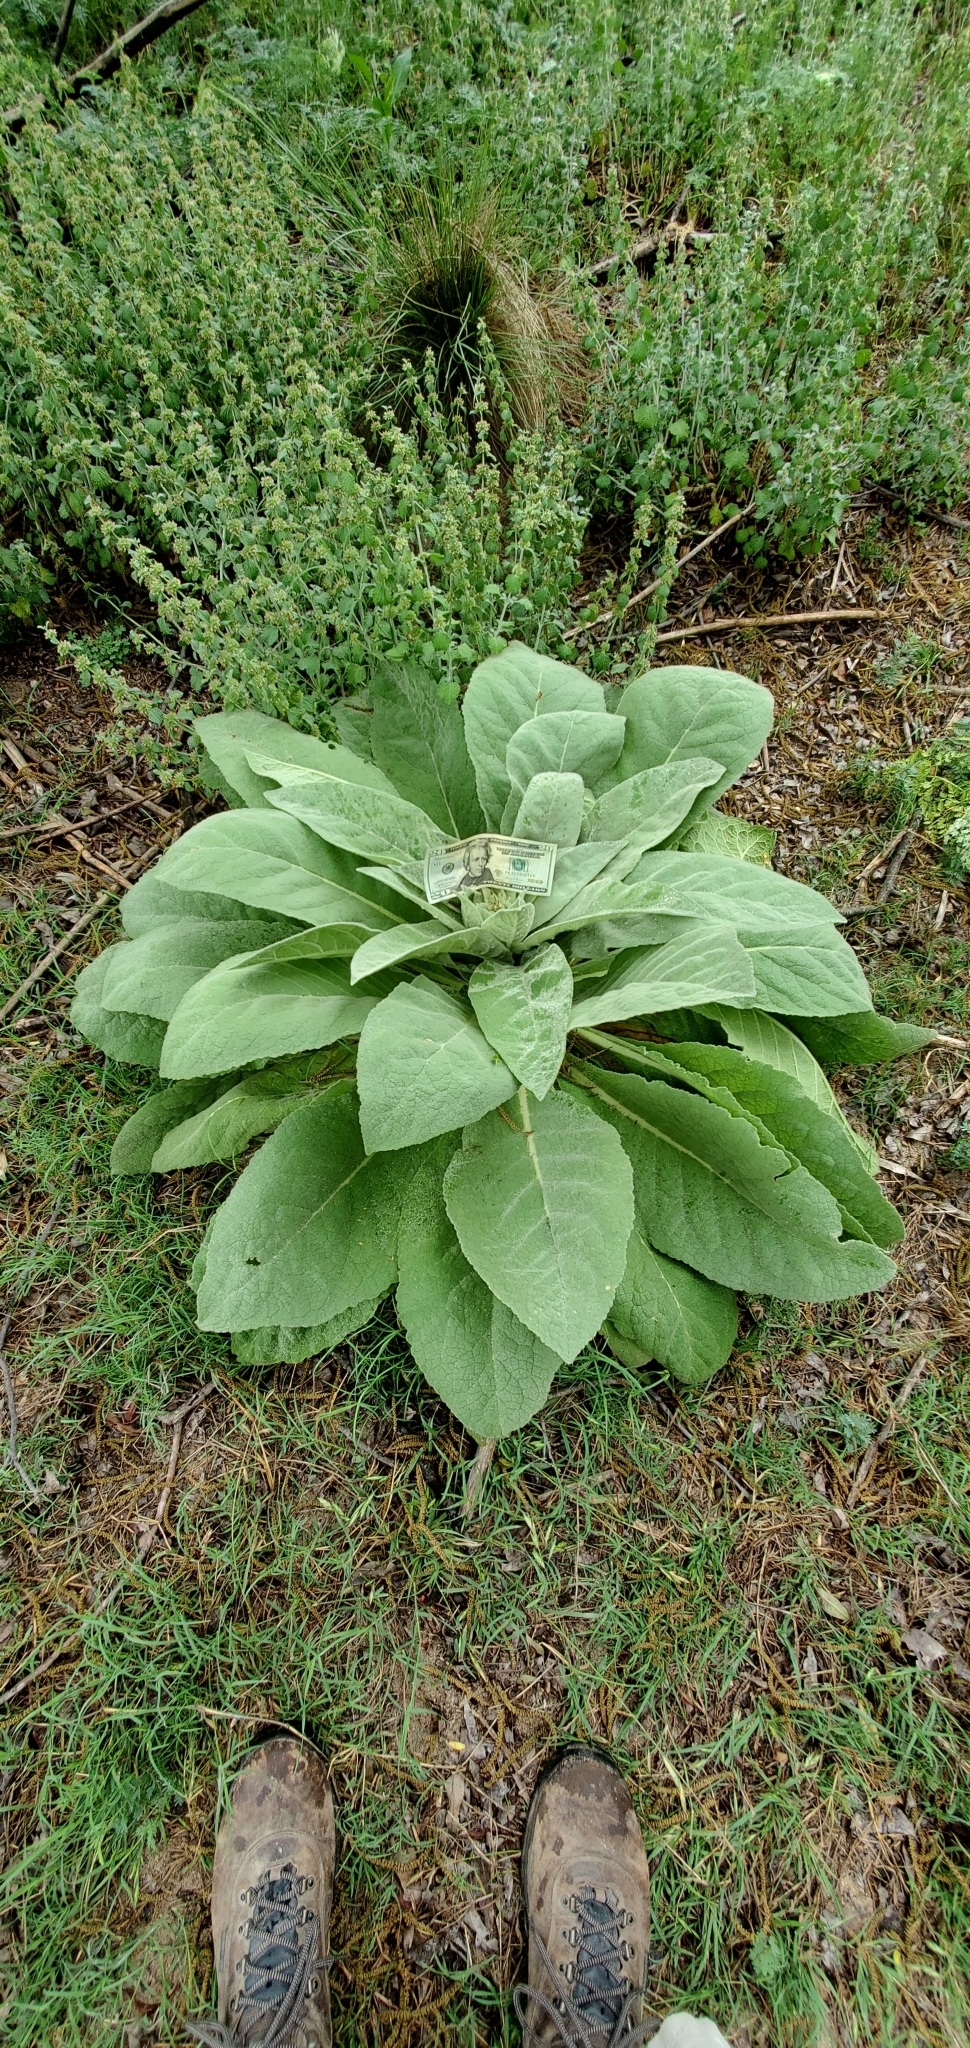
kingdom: Plantae
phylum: Tracheophyta
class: Magnoliopsida
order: Lamiales
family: Scrophulariaceae
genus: Verbascum
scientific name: Verbascum thapsus
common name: Common mullein
